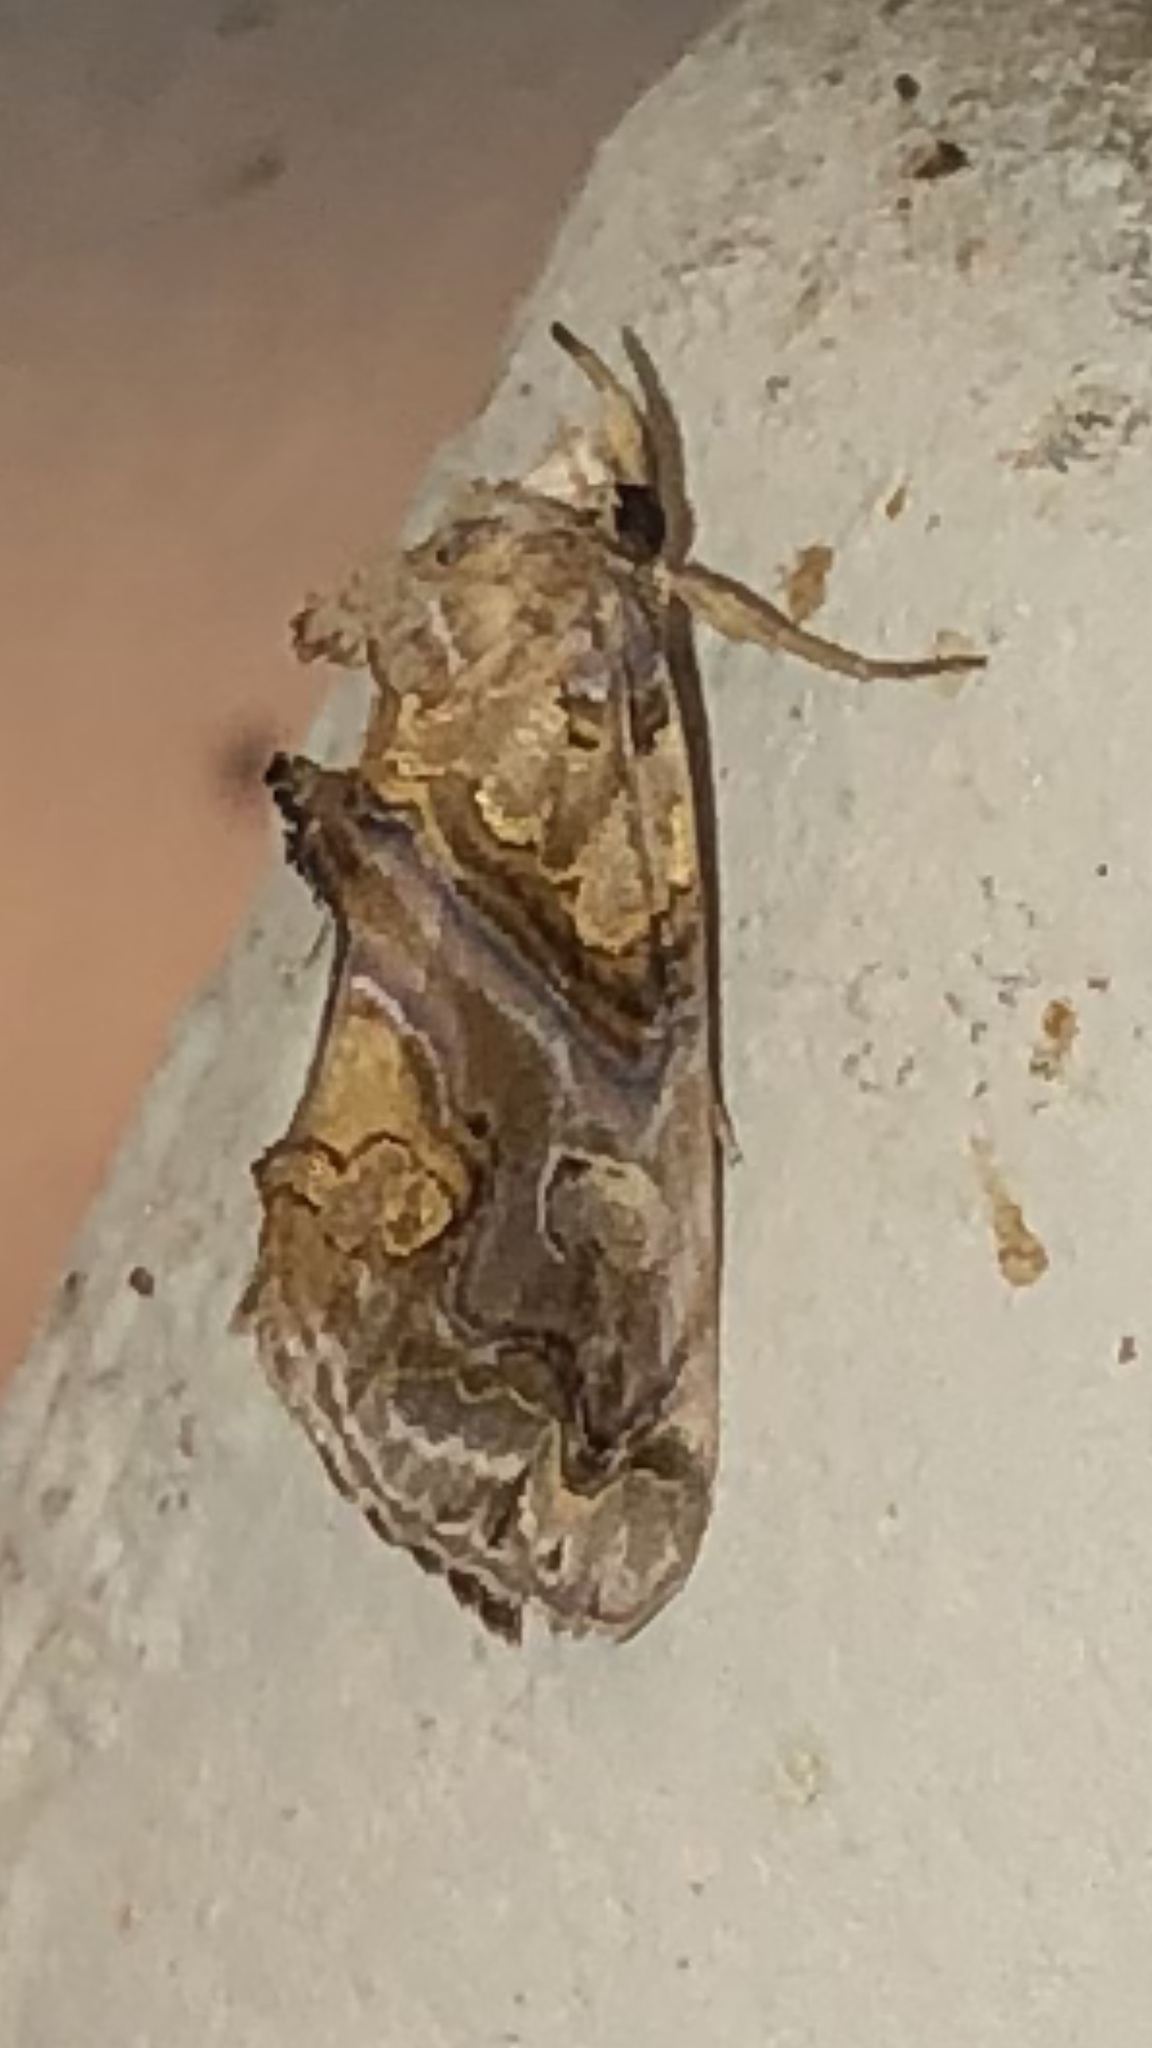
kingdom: Animalia
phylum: Arthropoda
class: Insecta
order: Lepidoptera
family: Erebidae
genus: Plusiodonta
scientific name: Plusiodonta compressipalpis
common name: Moonseed moth
